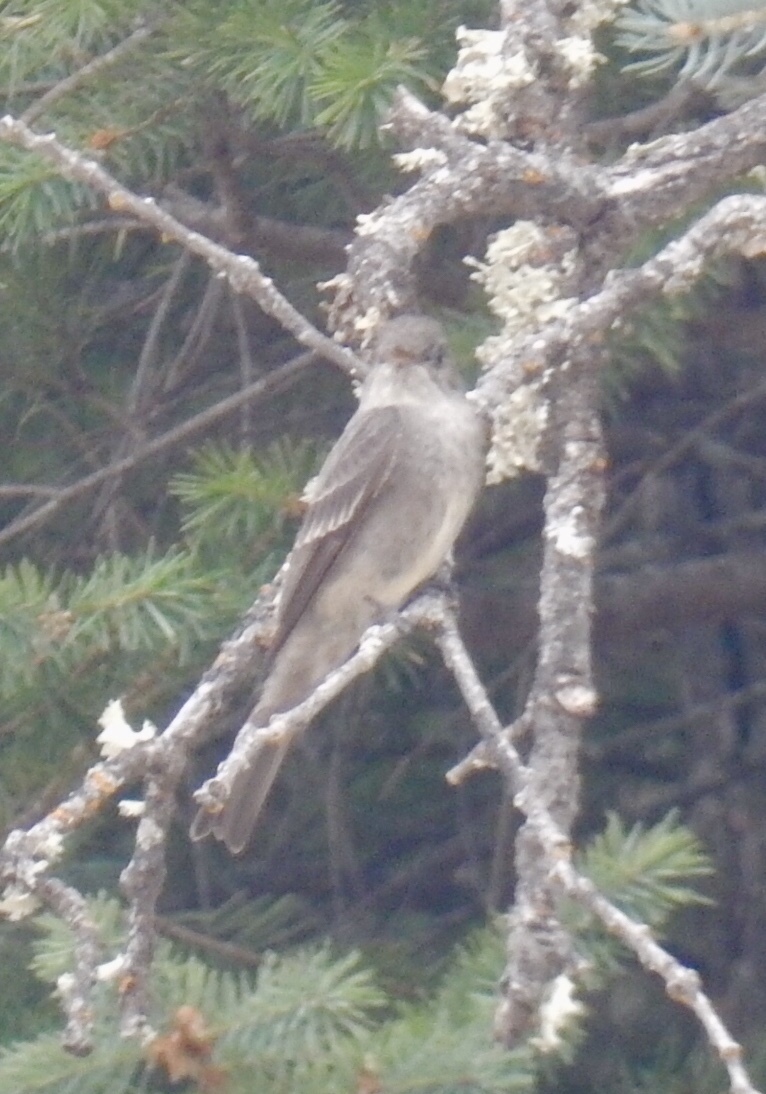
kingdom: Animalia
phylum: Chordata
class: Aves
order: Passeriformes
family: Tyrannidae
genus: Contopus
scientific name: Contopus sordidulus
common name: Western wood-pewee
